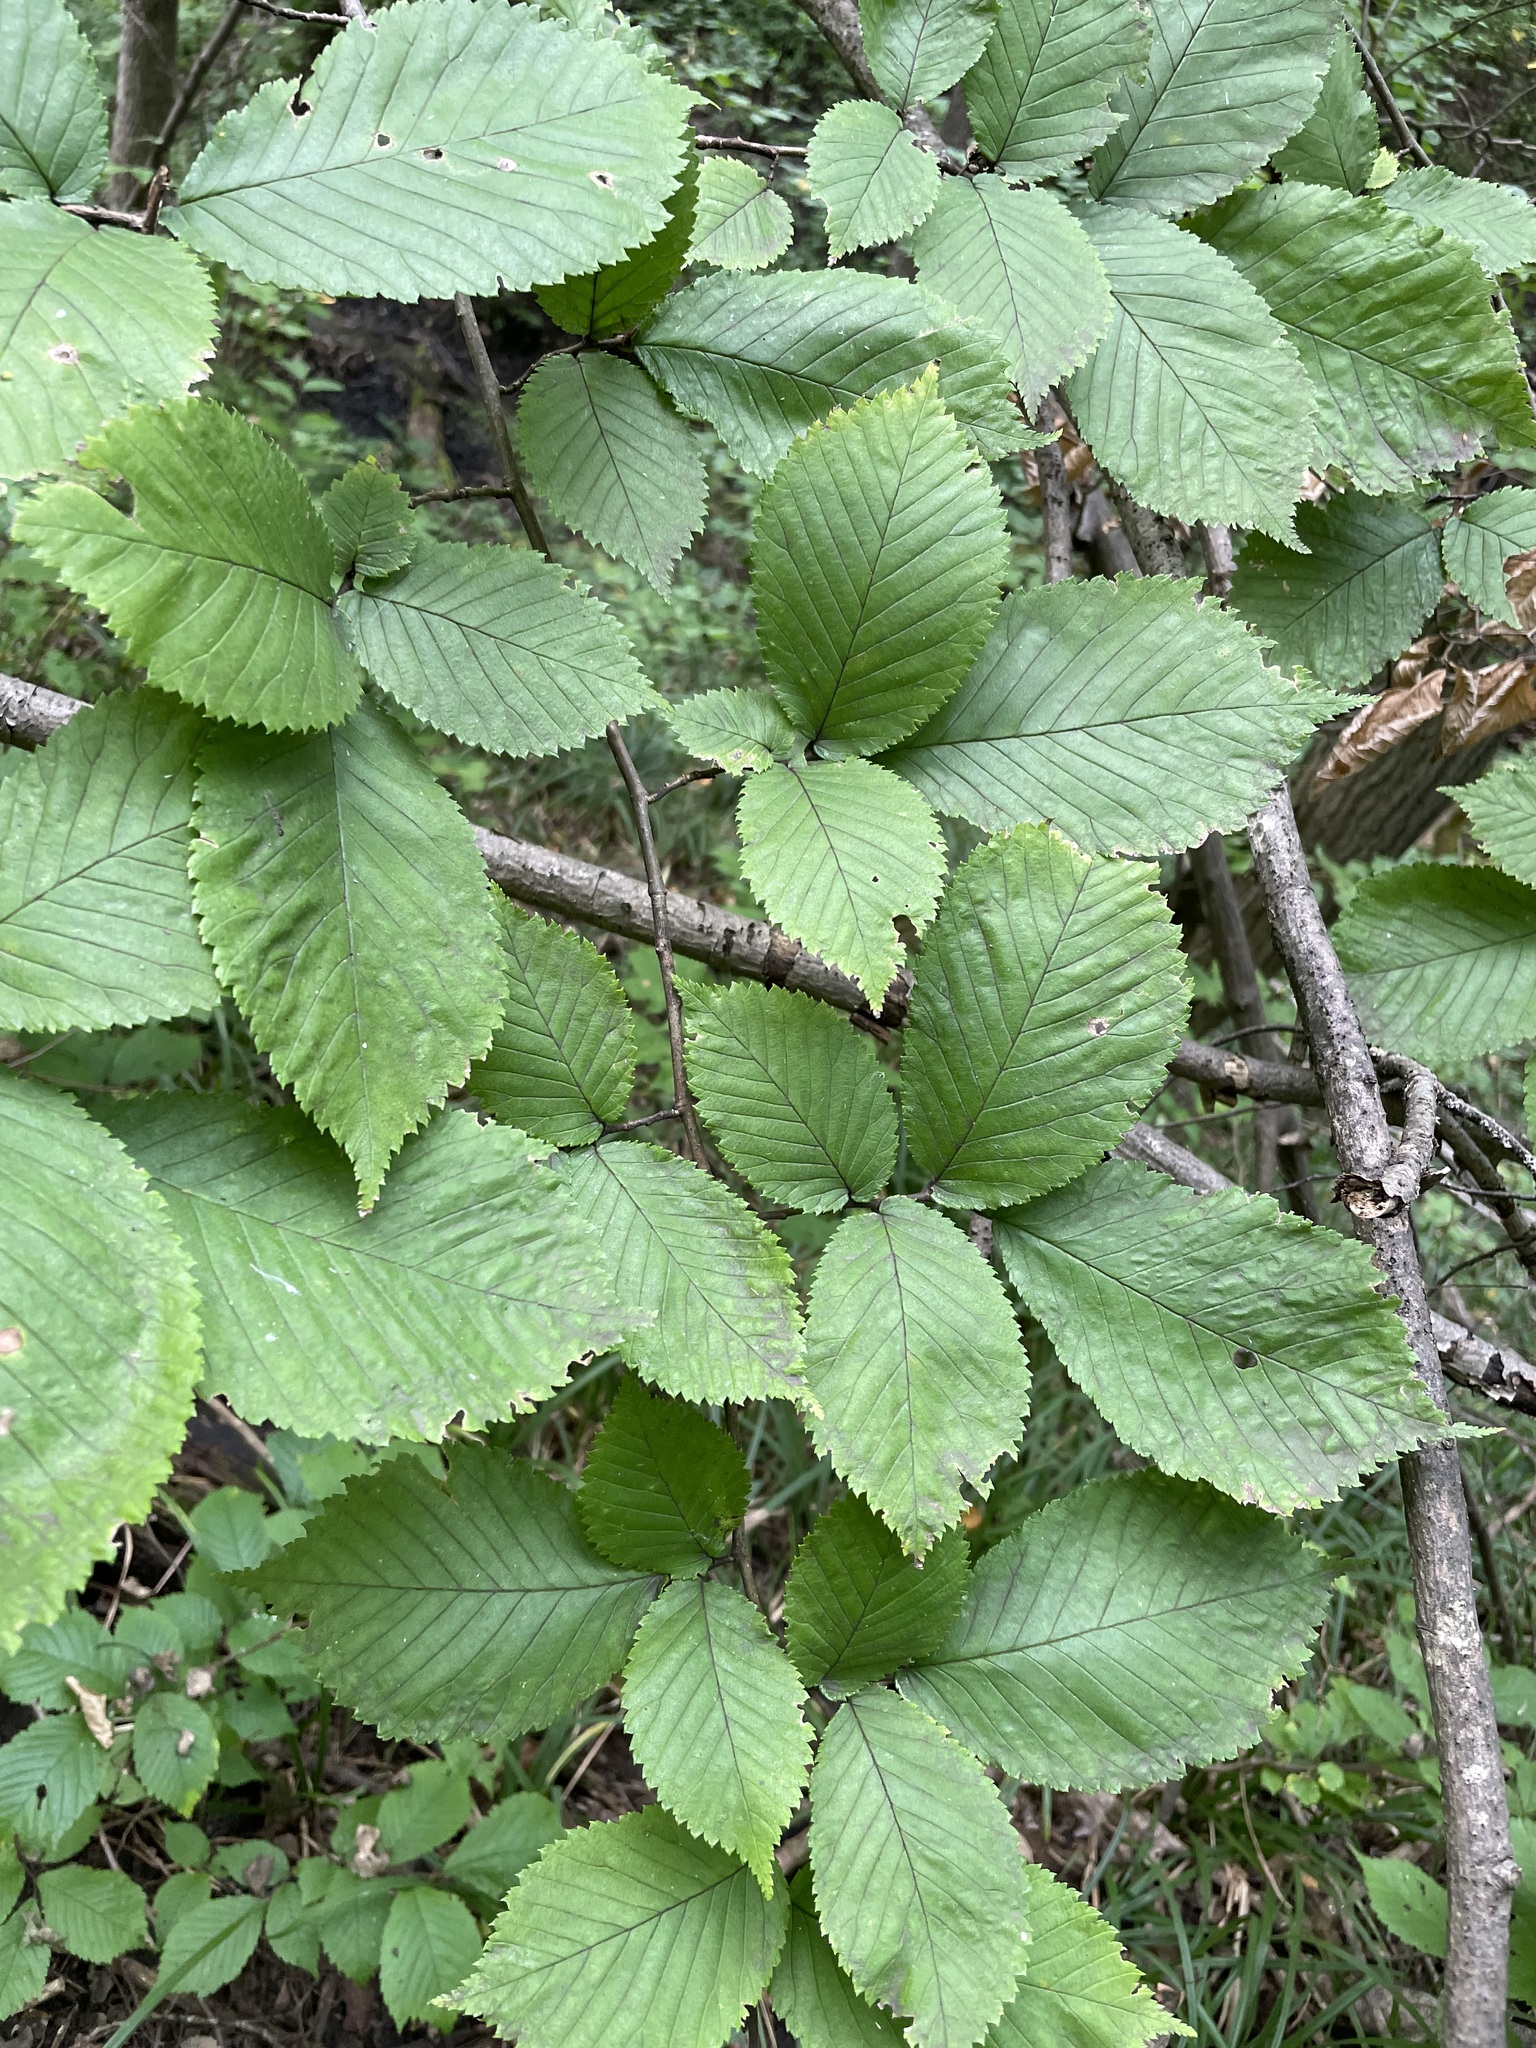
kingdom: Plantae
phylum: Tracheophyta
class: Magnoliopsida
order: Rosales
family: Ulmaceae
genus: Ulmus
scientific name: Ulmus glabra
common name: Wych elm
